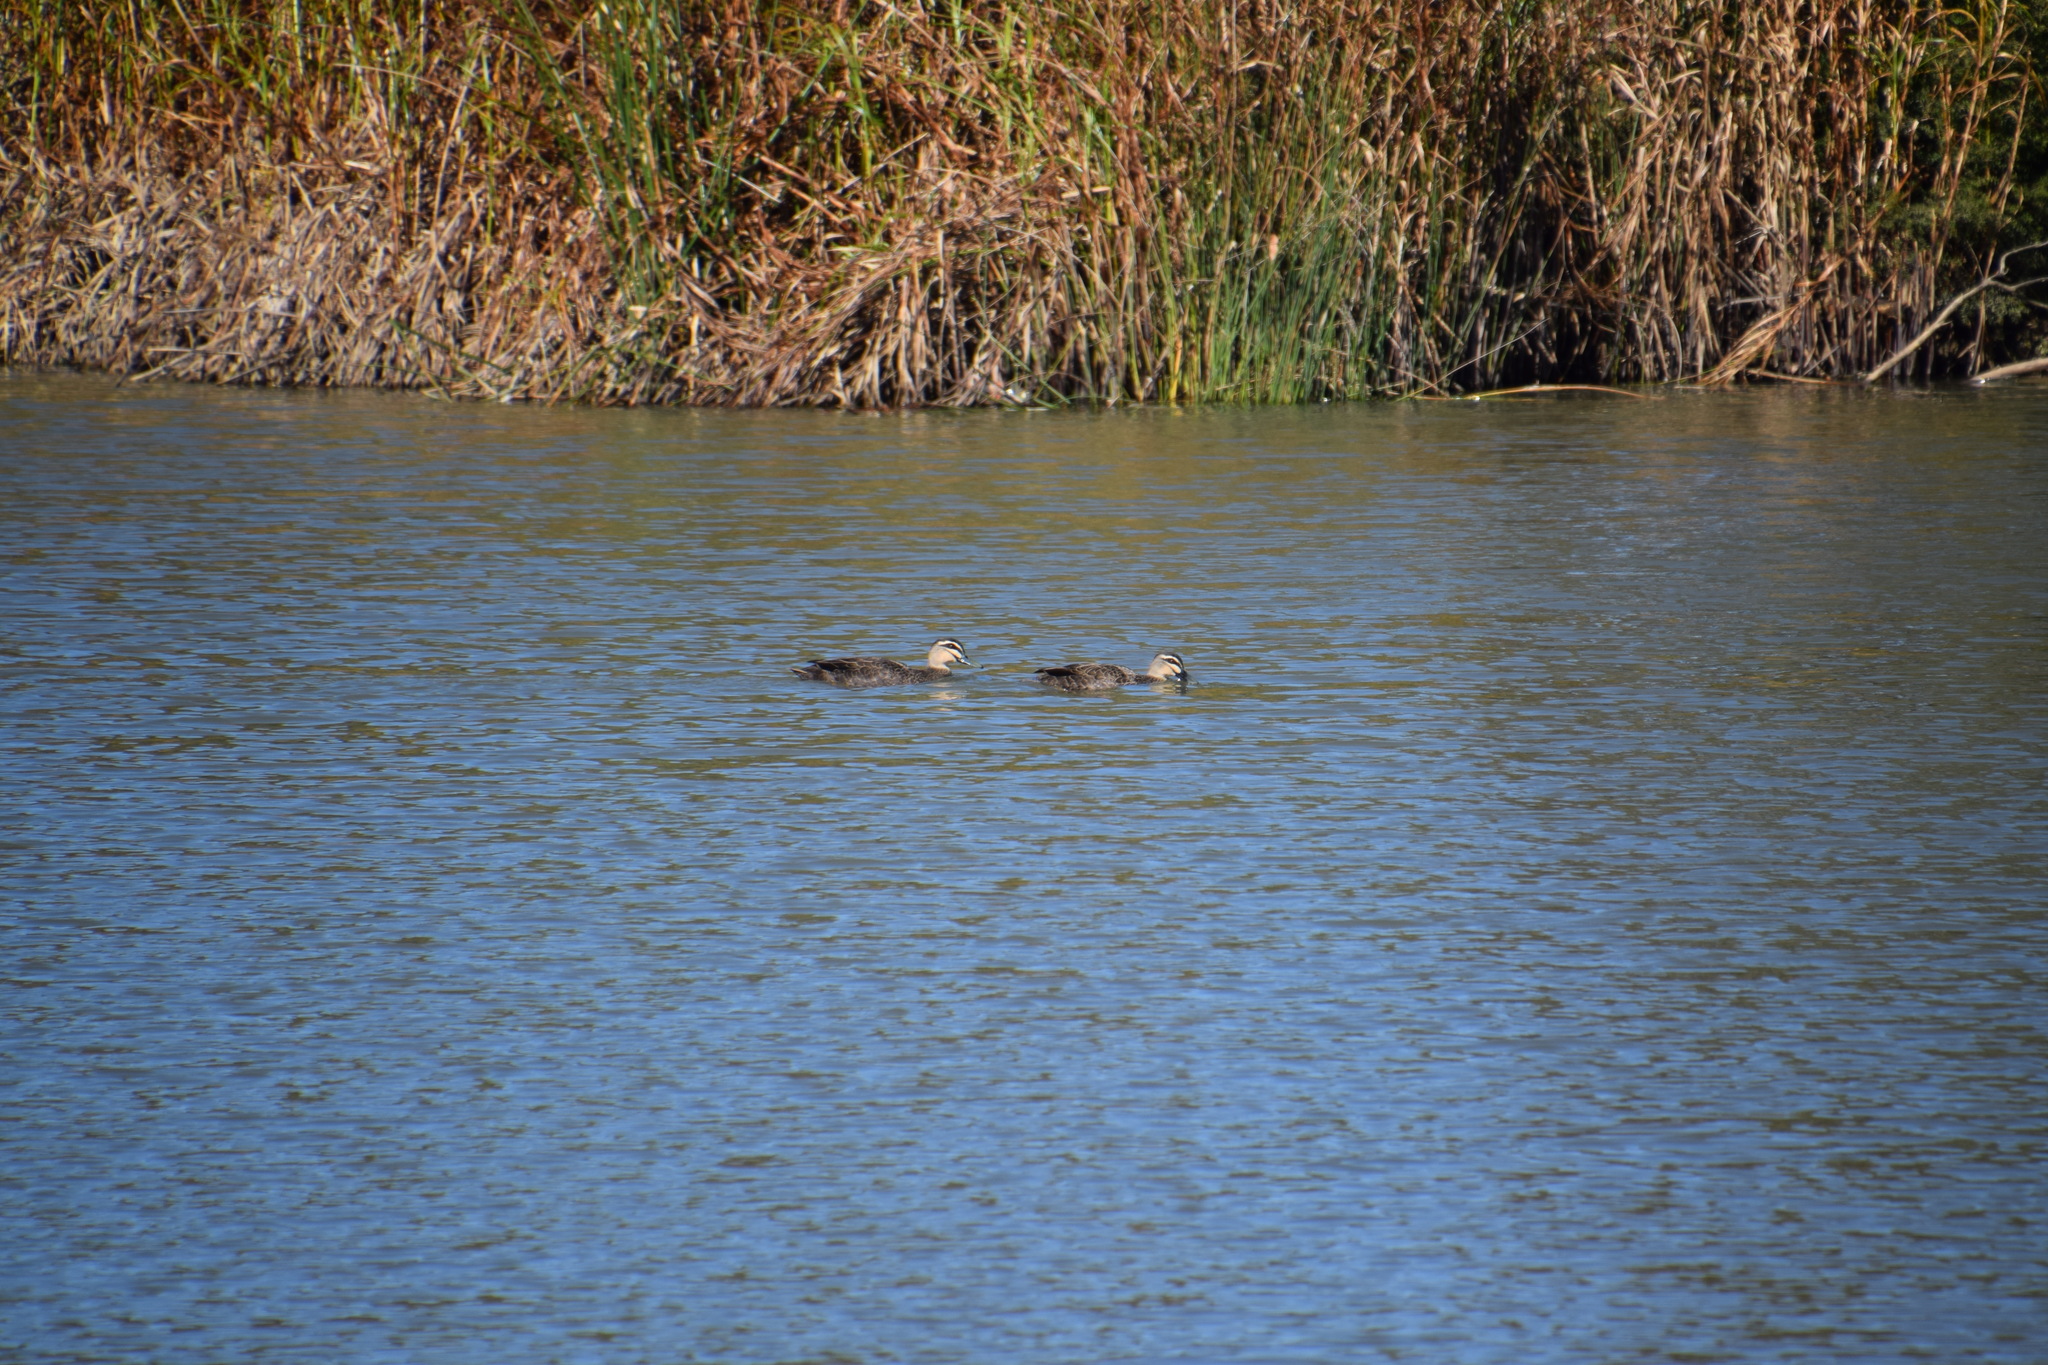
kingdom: Animalia
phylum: Chordata
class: Aves
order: Anseriformes
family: Anatidae
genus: Anas
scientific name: Anas superciliosa
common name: Pacific black duck
